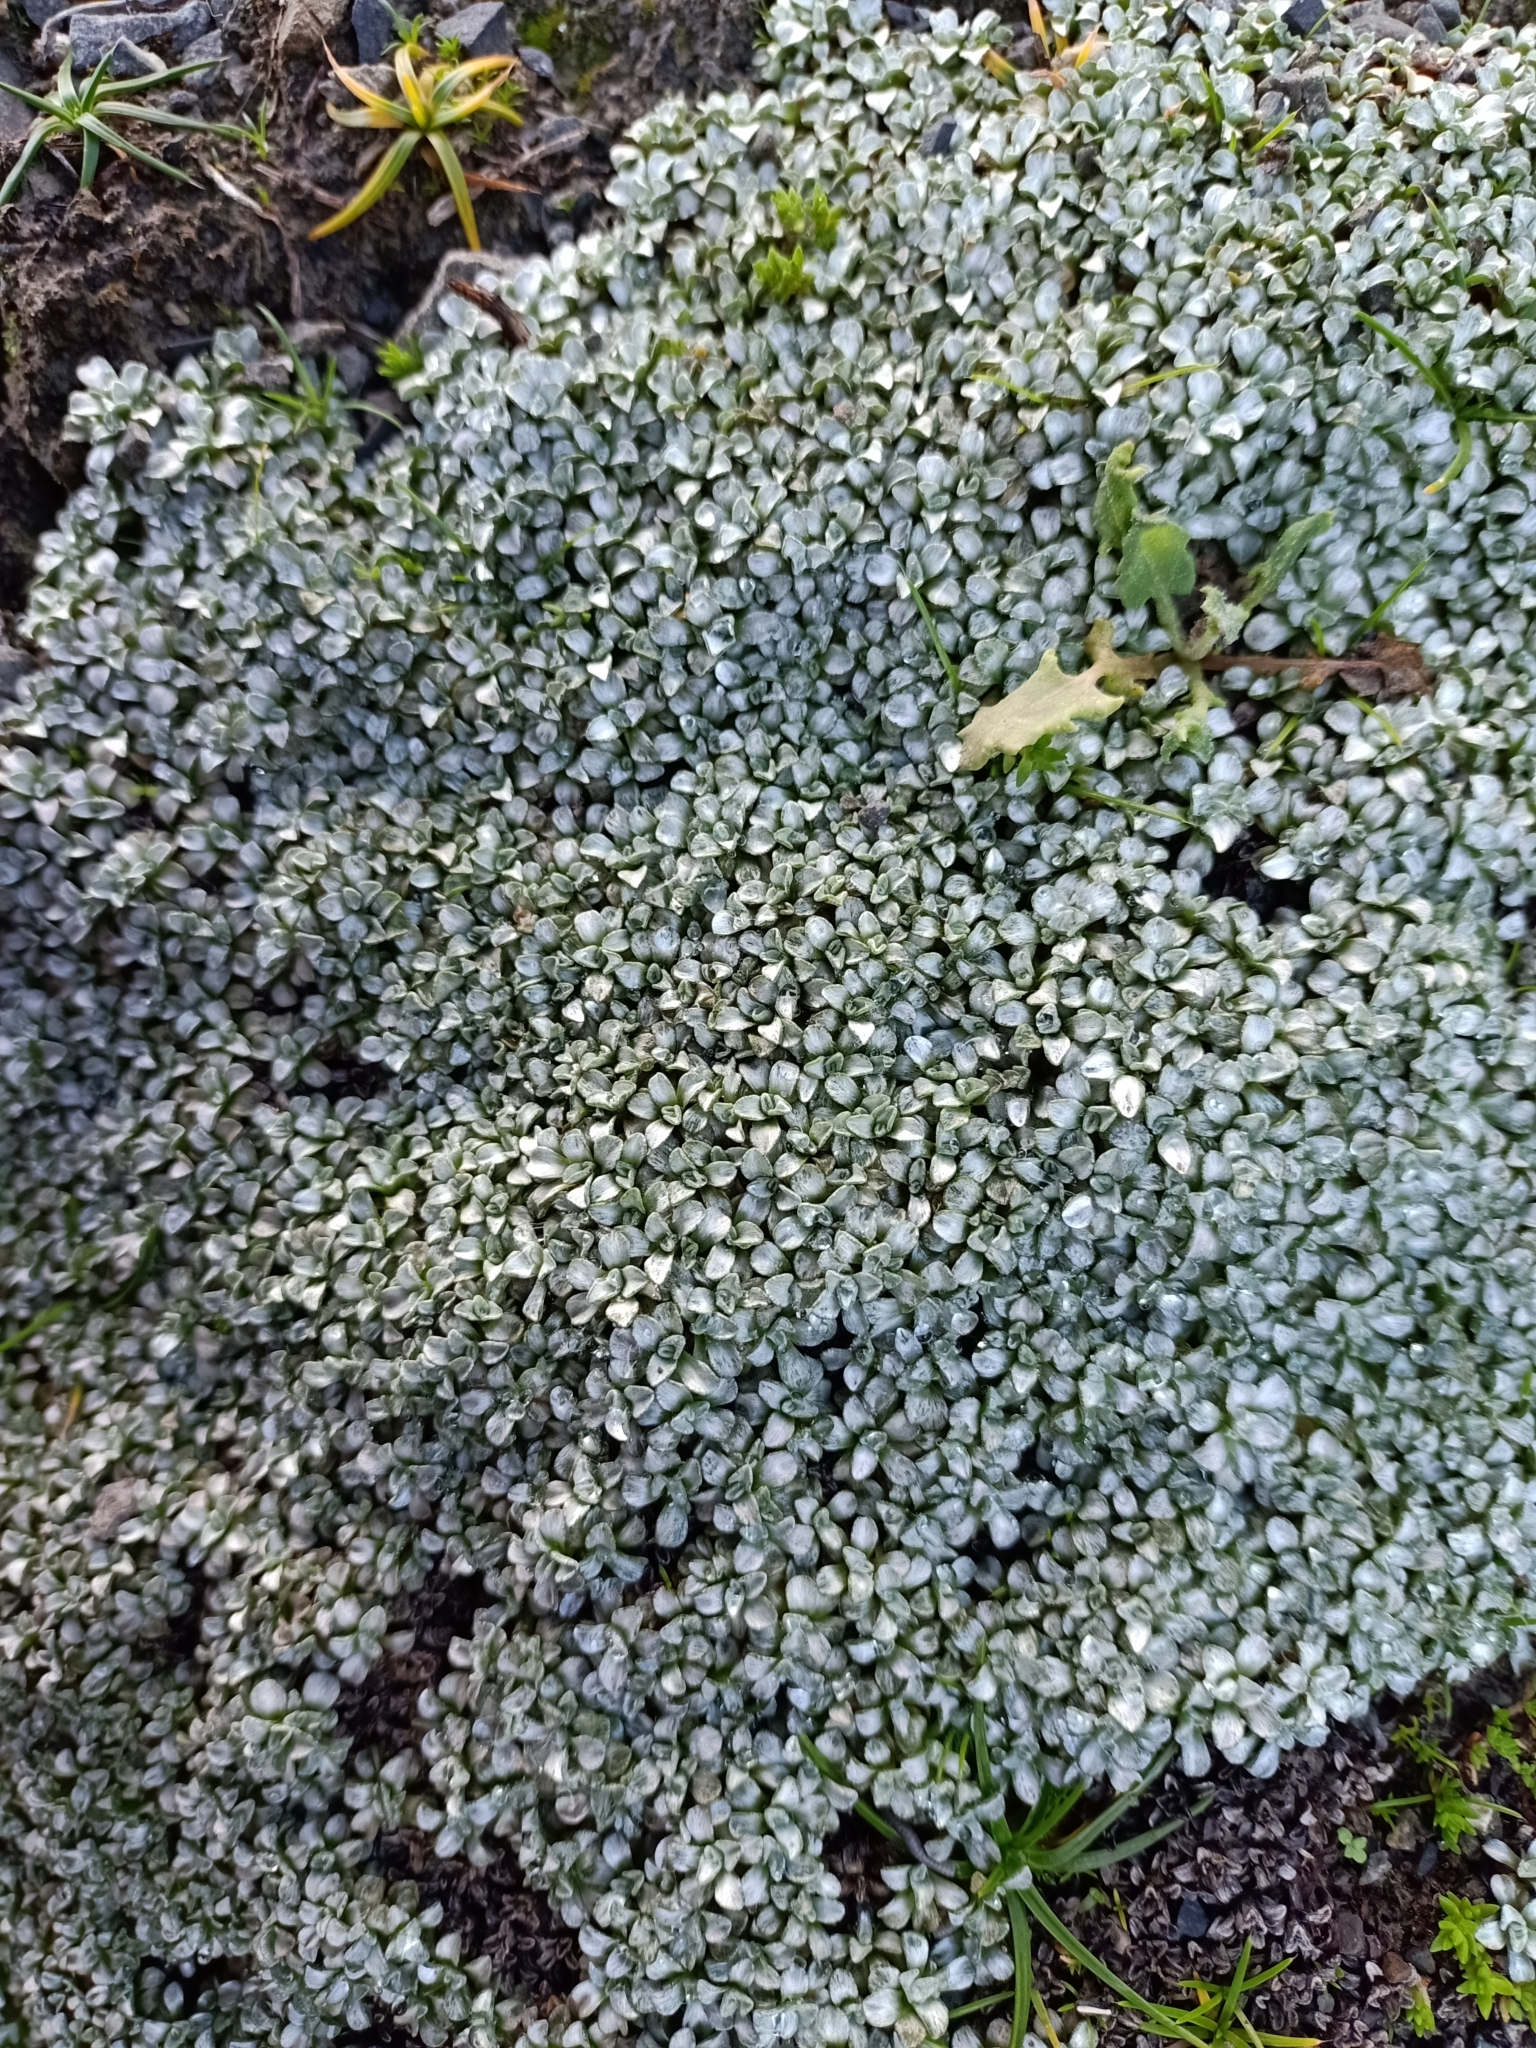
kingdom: Plantae
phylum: Tracheophyta
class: Magnoliopsida
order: Asterales
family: Asteraceae
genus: Raoulia
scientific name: Raoulia hookeri
